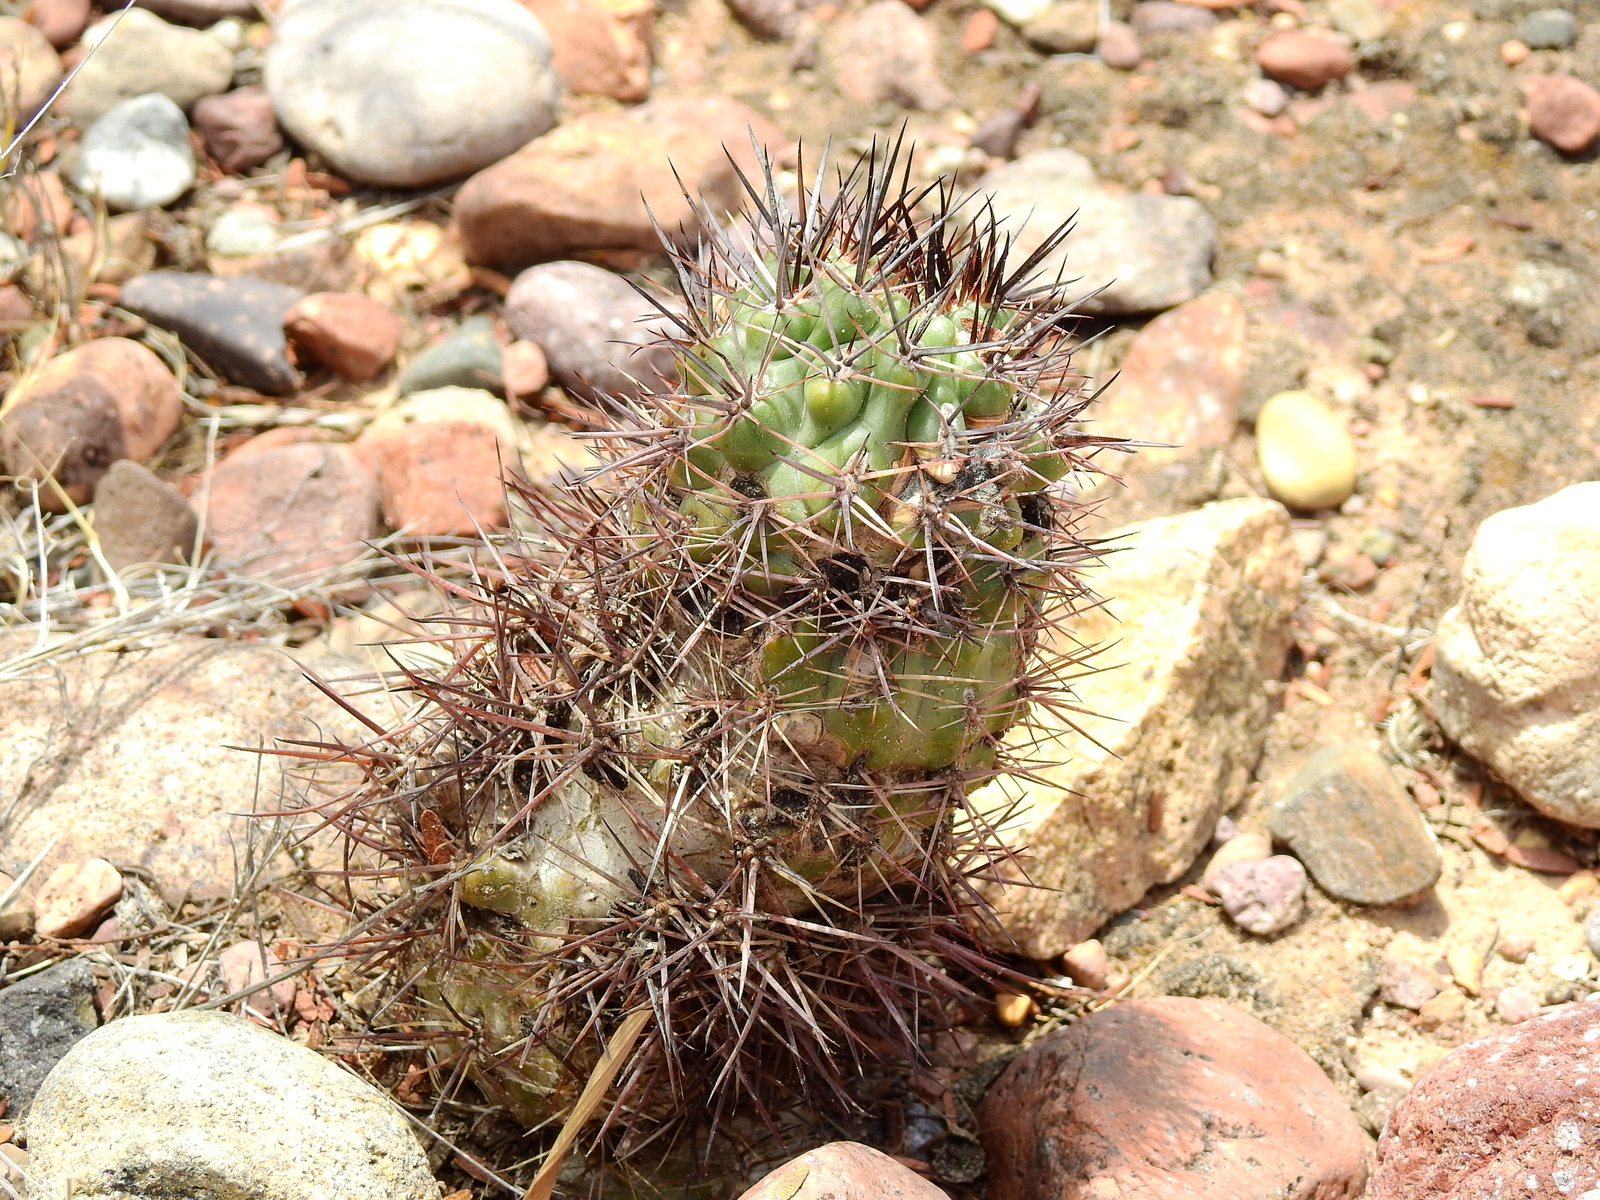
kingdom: Plantae
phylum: Tracheophyta
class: Magnoliopsida
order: Caryophyllales
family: Cactaceae
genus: Eriosyce
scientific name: Eriosyce strausiana
